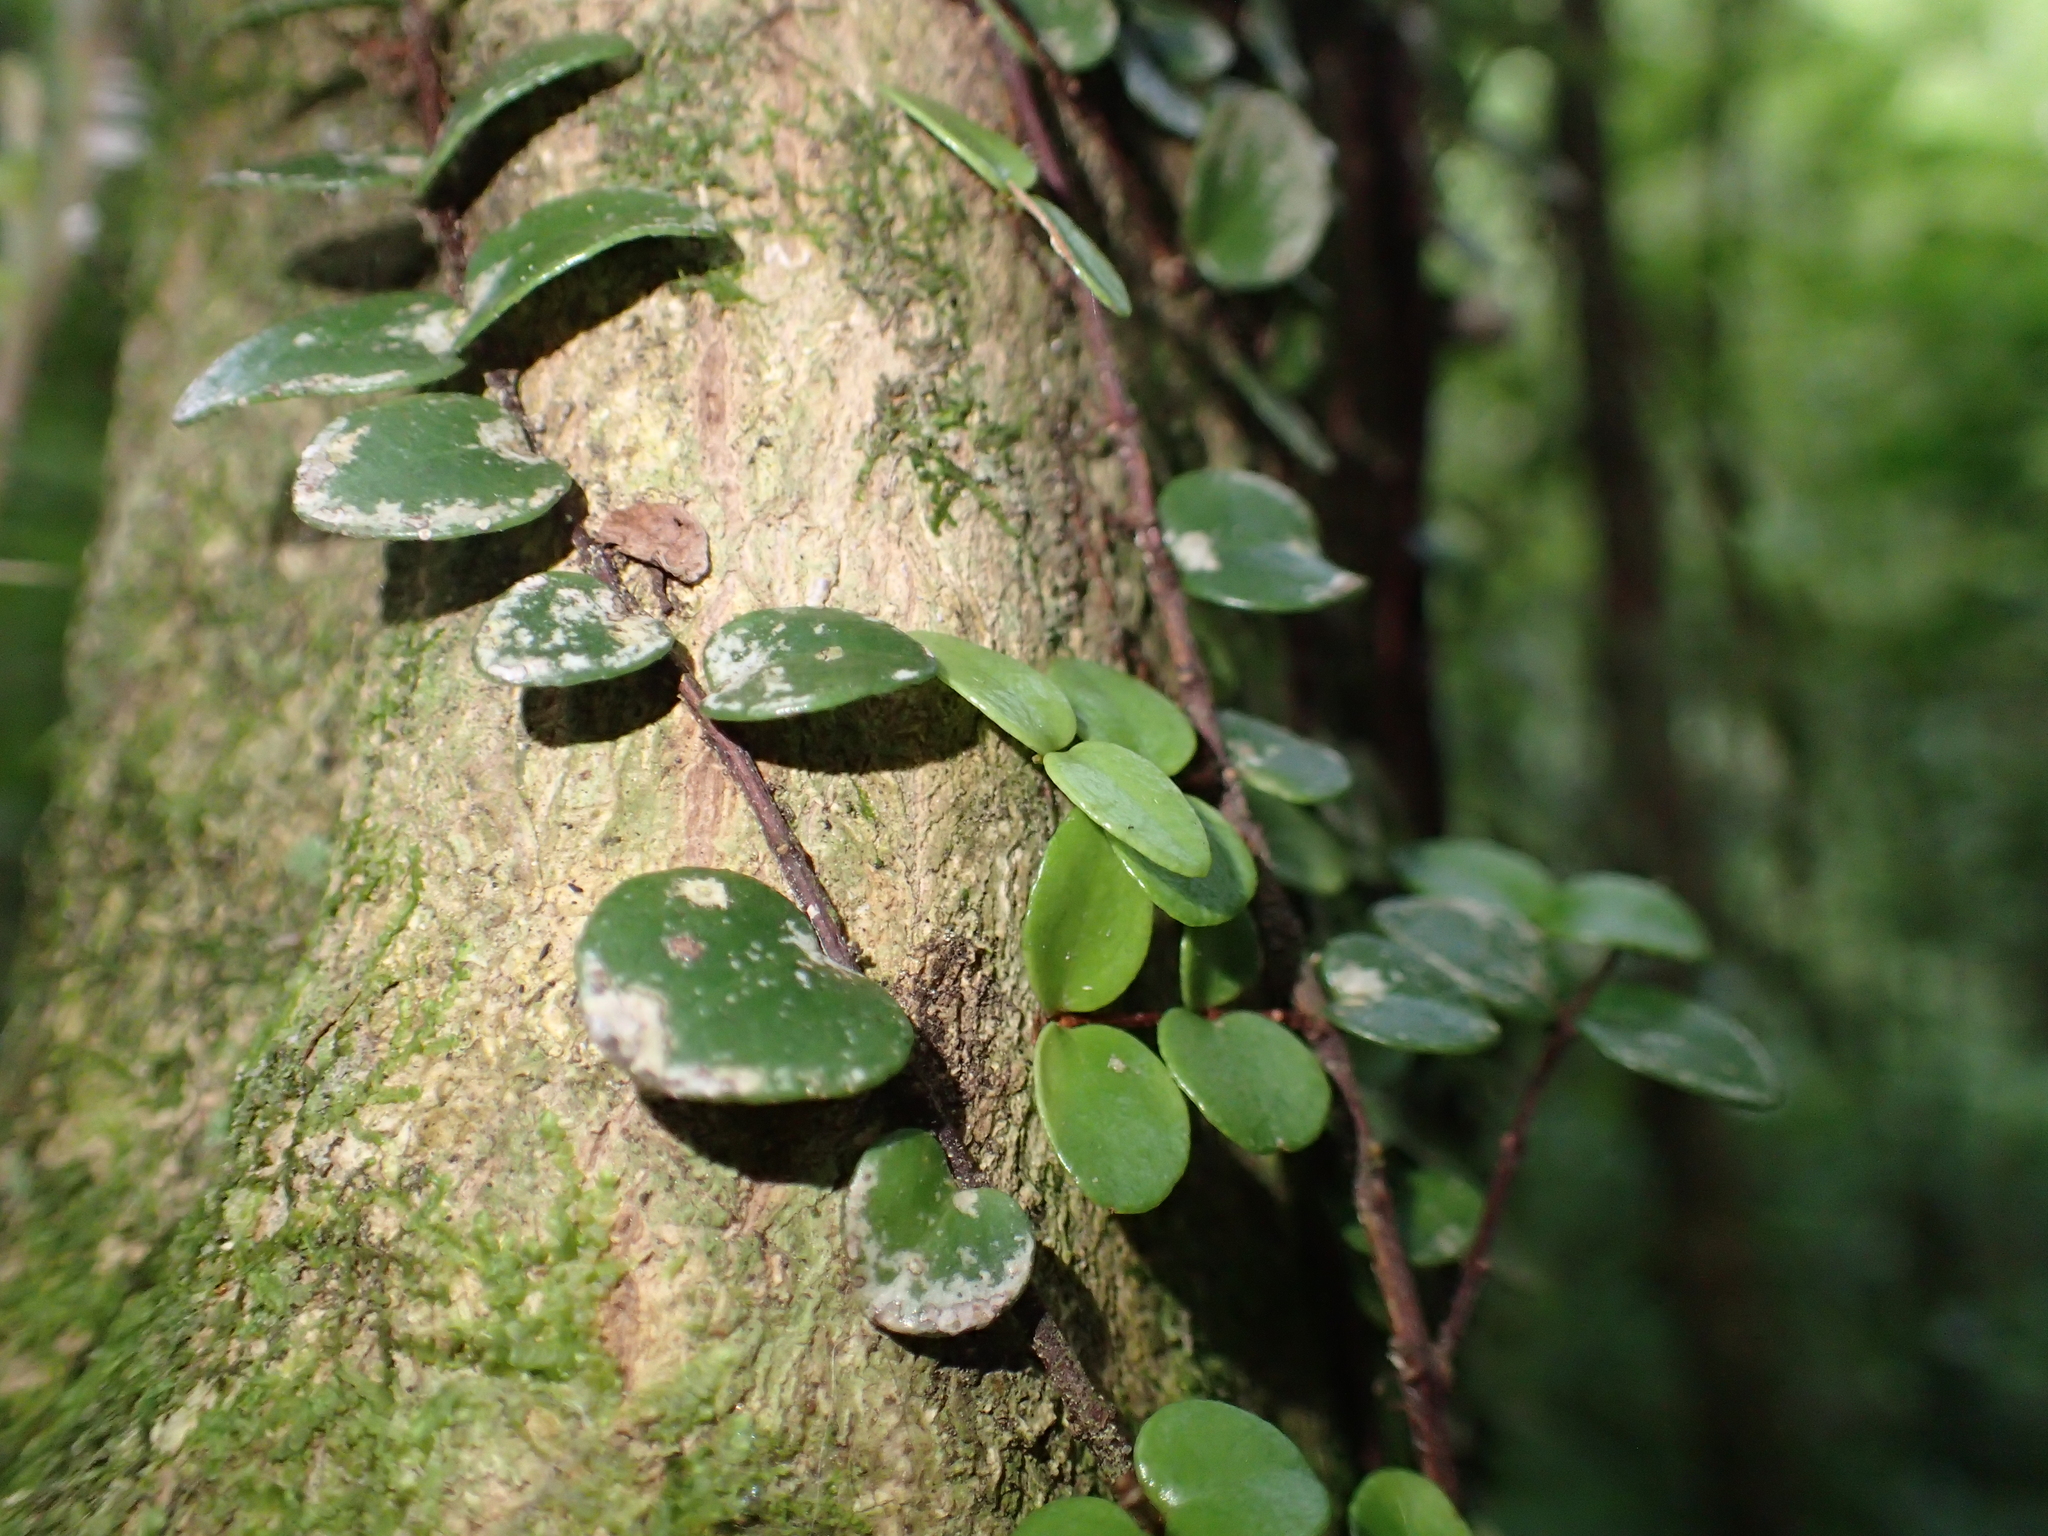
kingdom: Plantae
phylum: Tracheophyta
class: Magnoliopsida
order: Myrtales
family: Myrtaceae
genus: Metrosideros
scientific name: Metrosideros perforata
